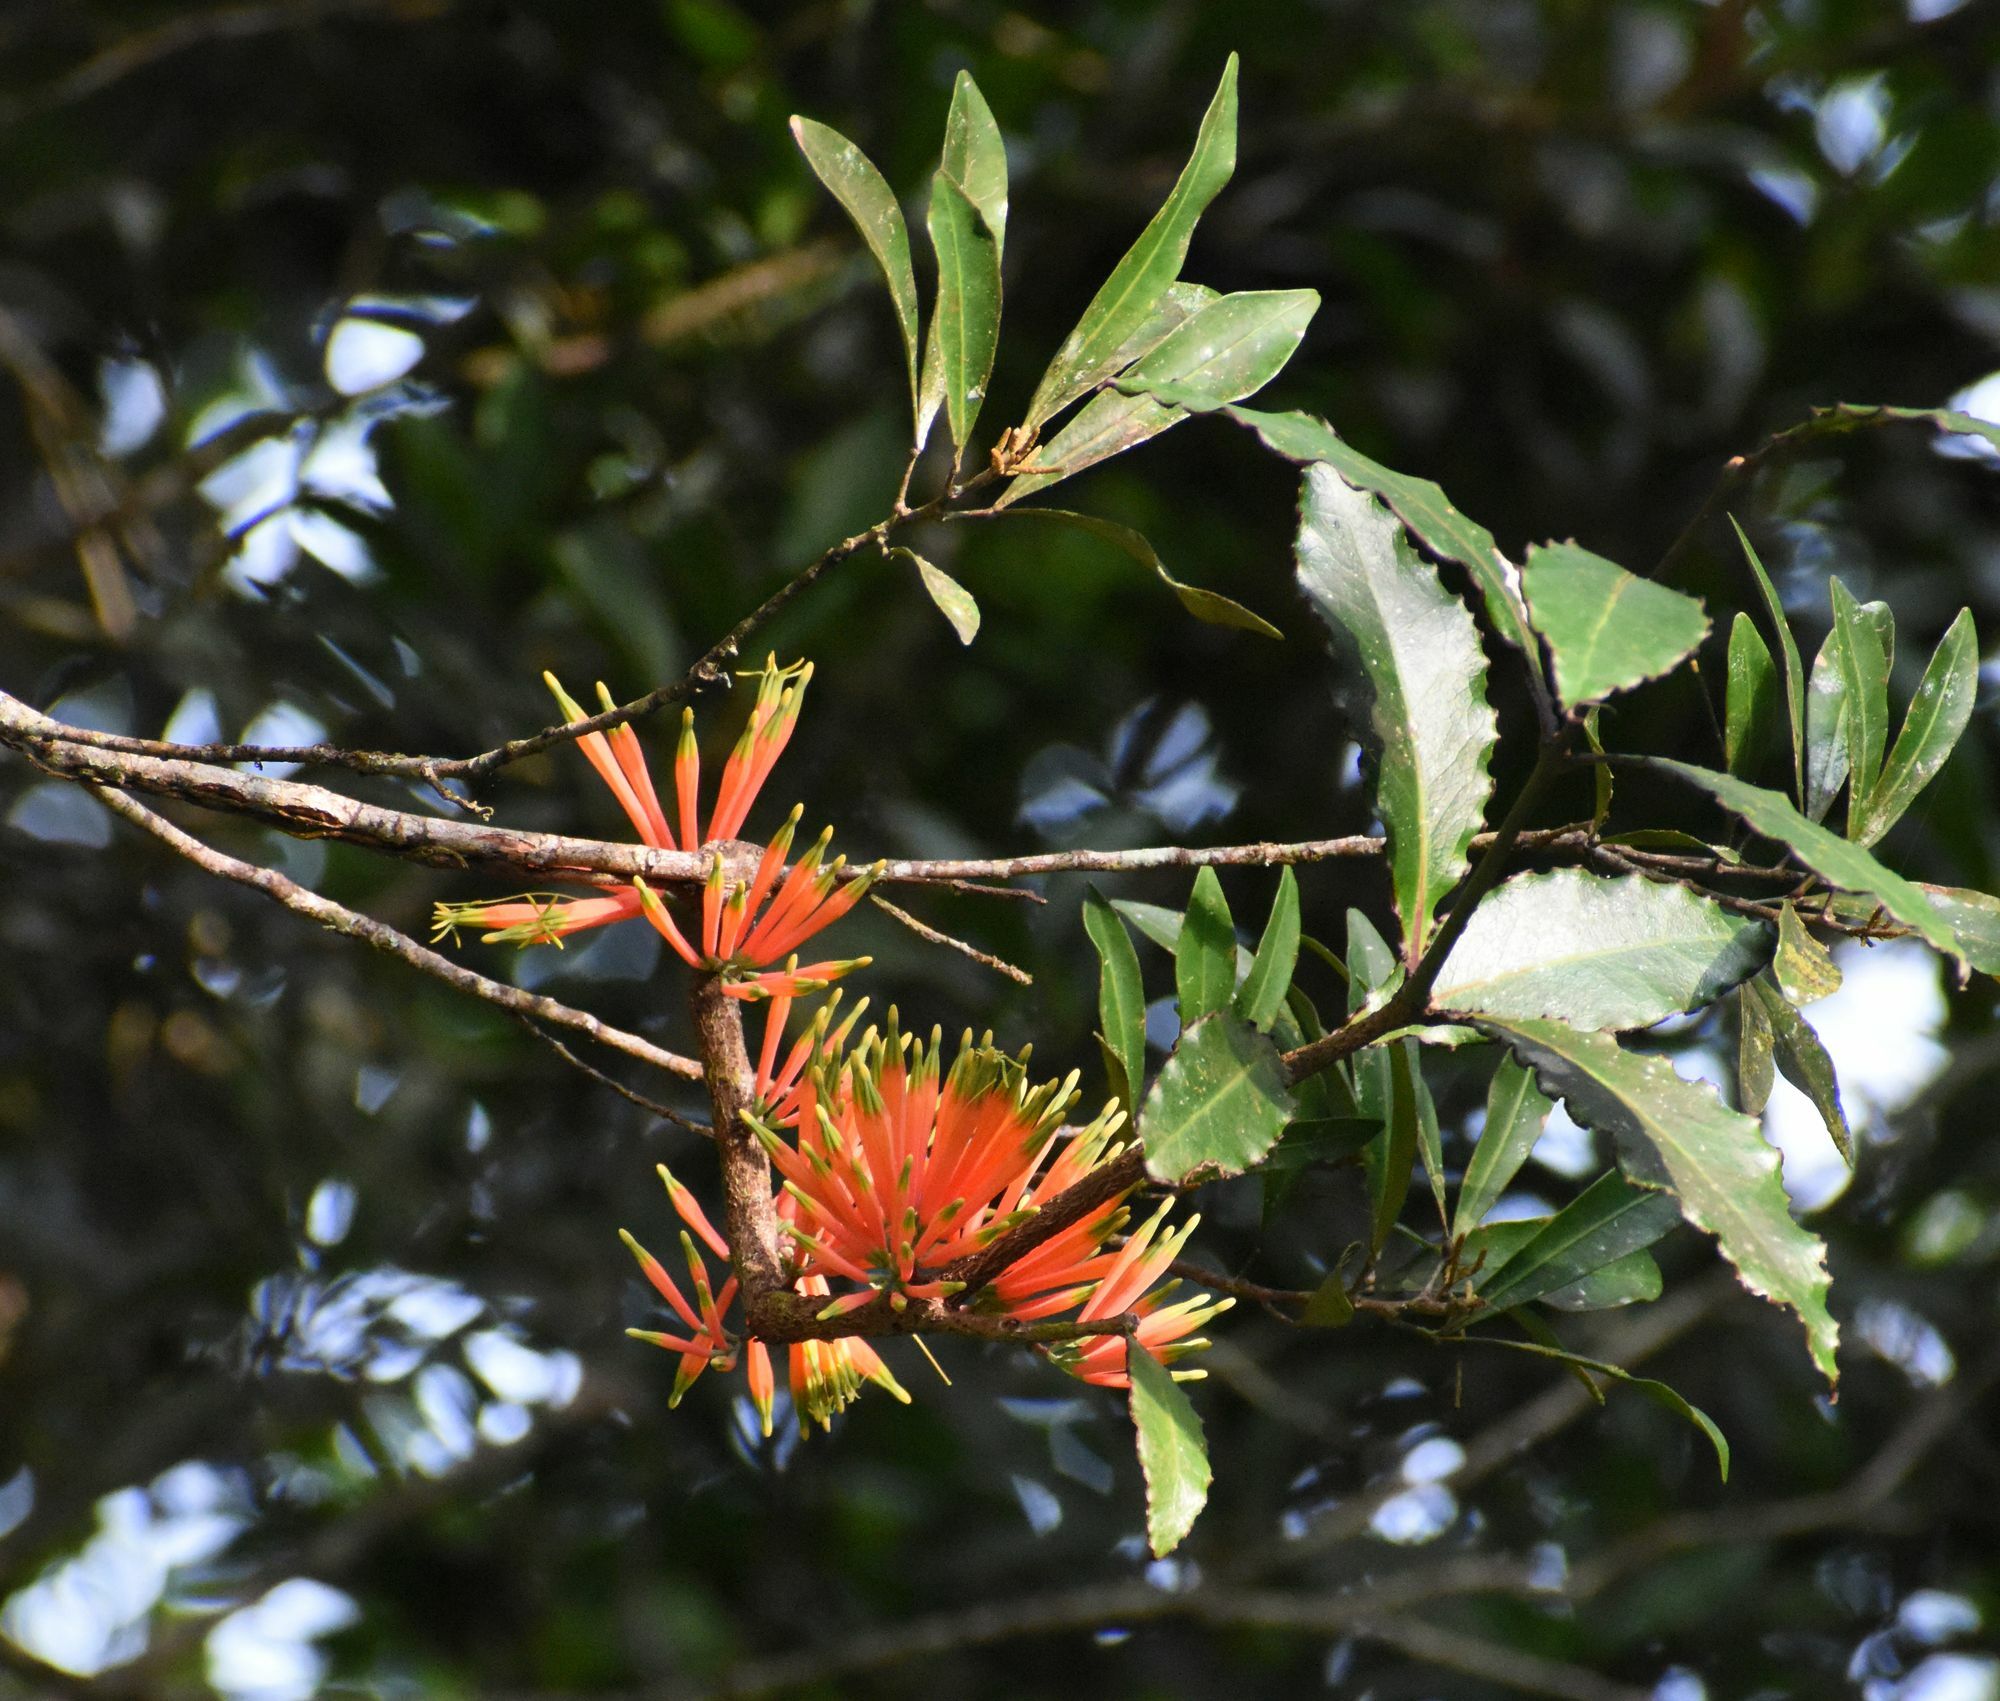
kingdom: Plantae
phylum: Tracheophyta
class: Magnoliopsida
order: Santalales
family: Loranthaceae
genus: Amylotheca
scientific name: Amylotheca dictyophleba
